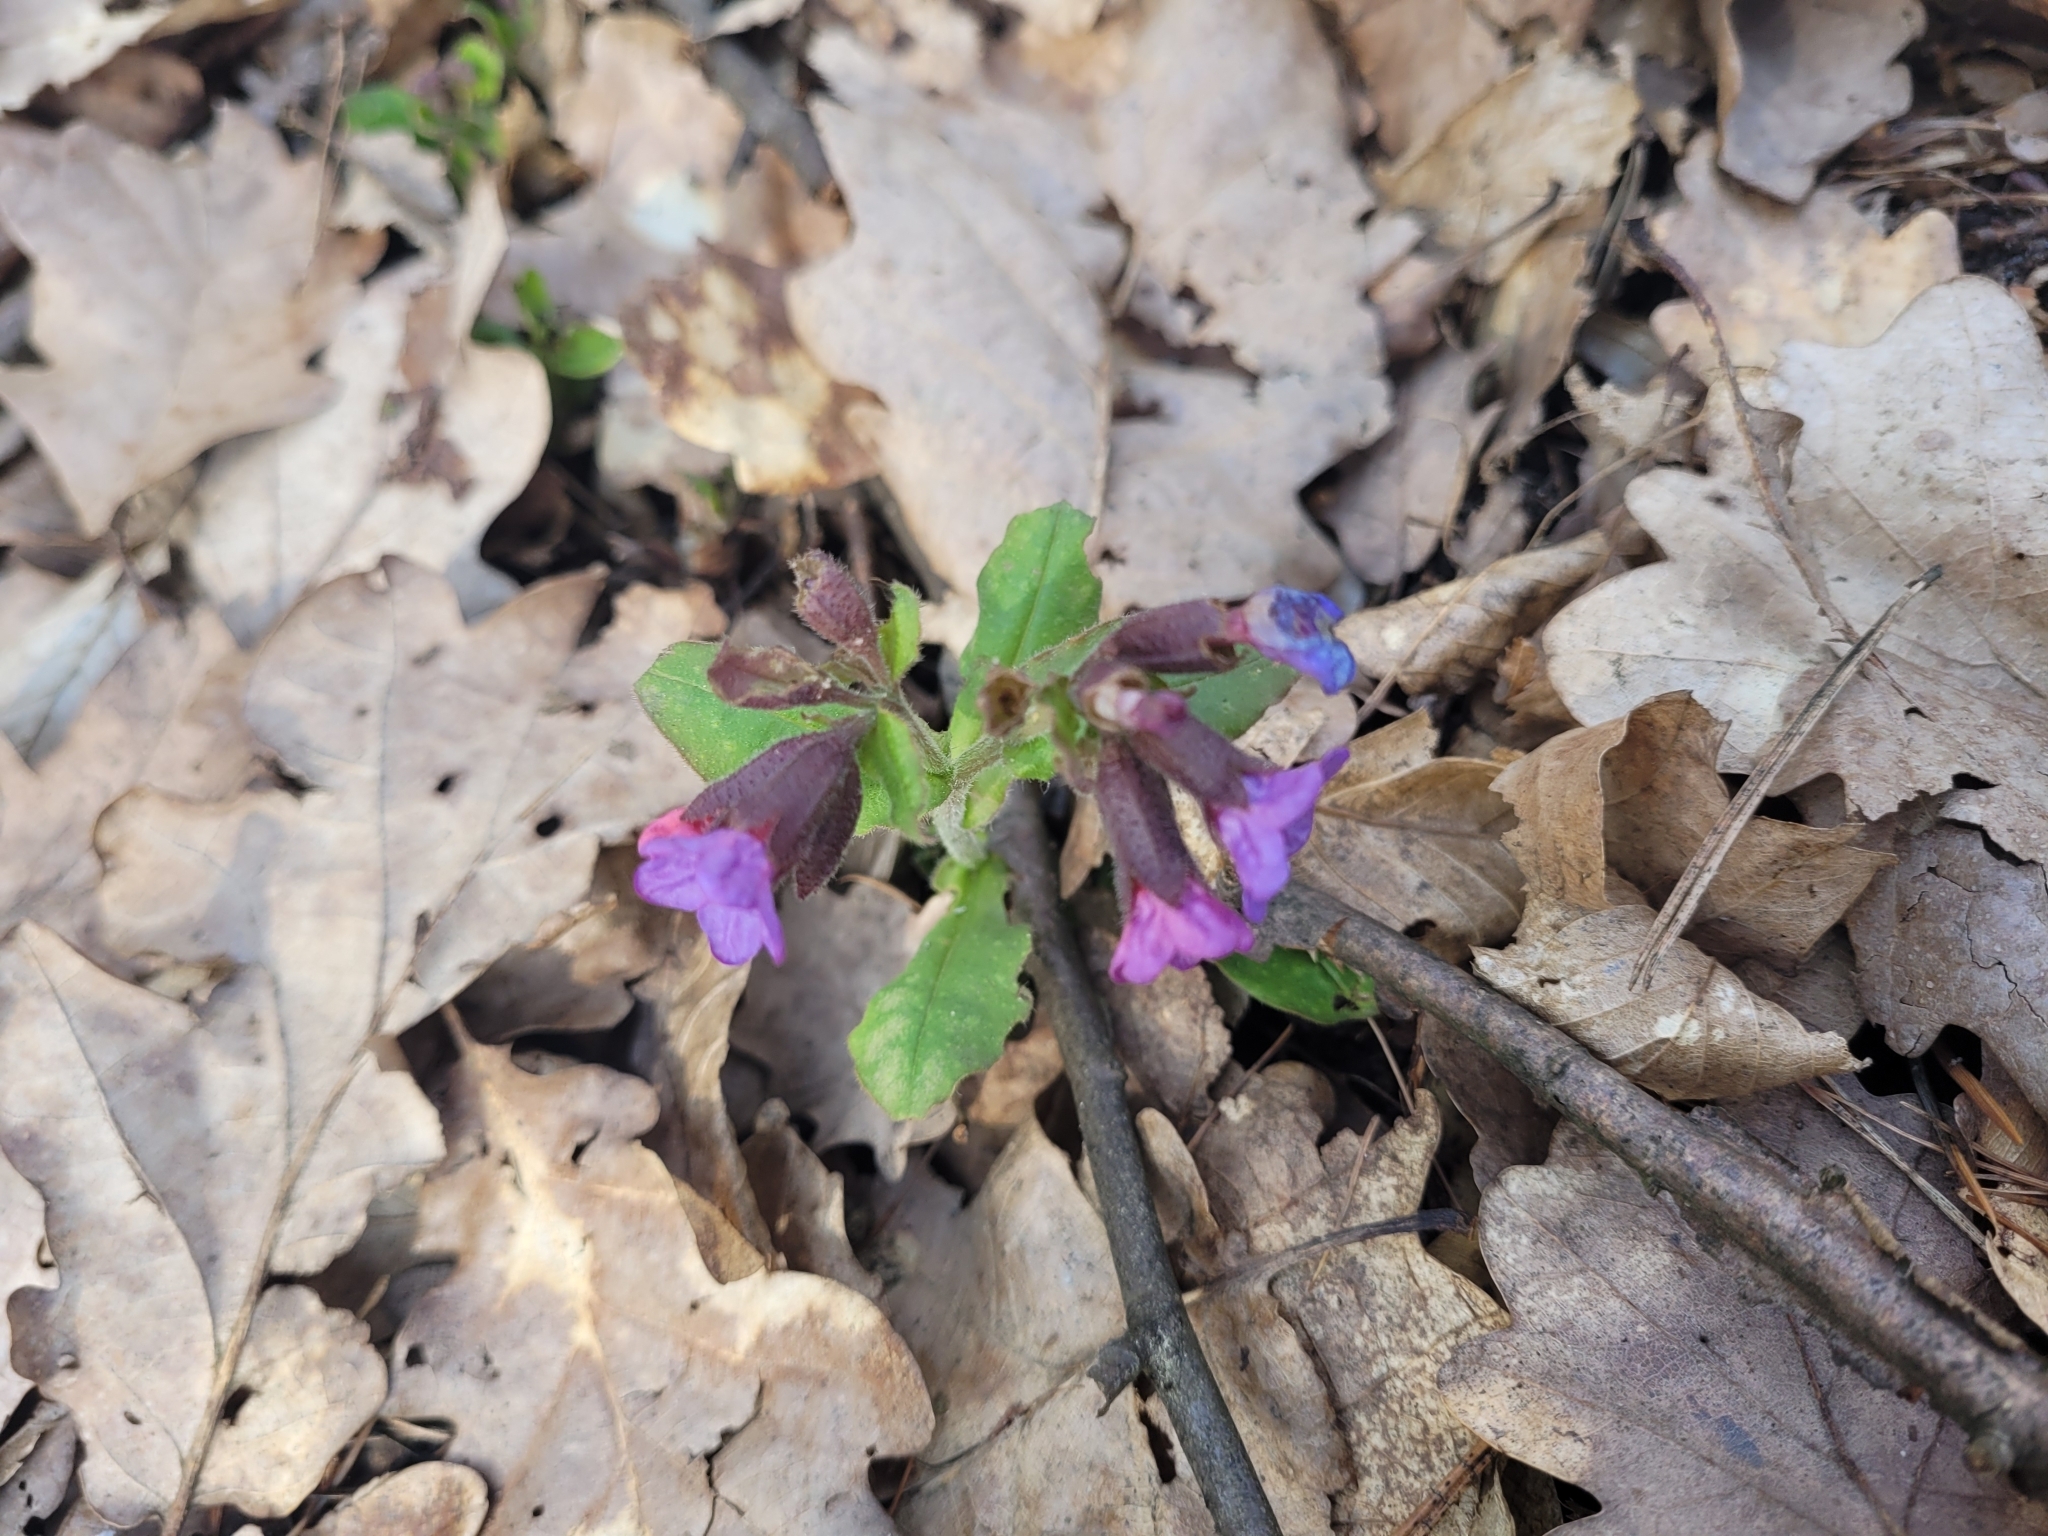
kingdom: Plantae
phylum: Tracheophyta
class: Magnoliopsida
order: Boraginales
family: Boraginaceae
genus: Pulmonaria
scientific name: Pulmonaria obscura
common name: Suffolk lungwort
